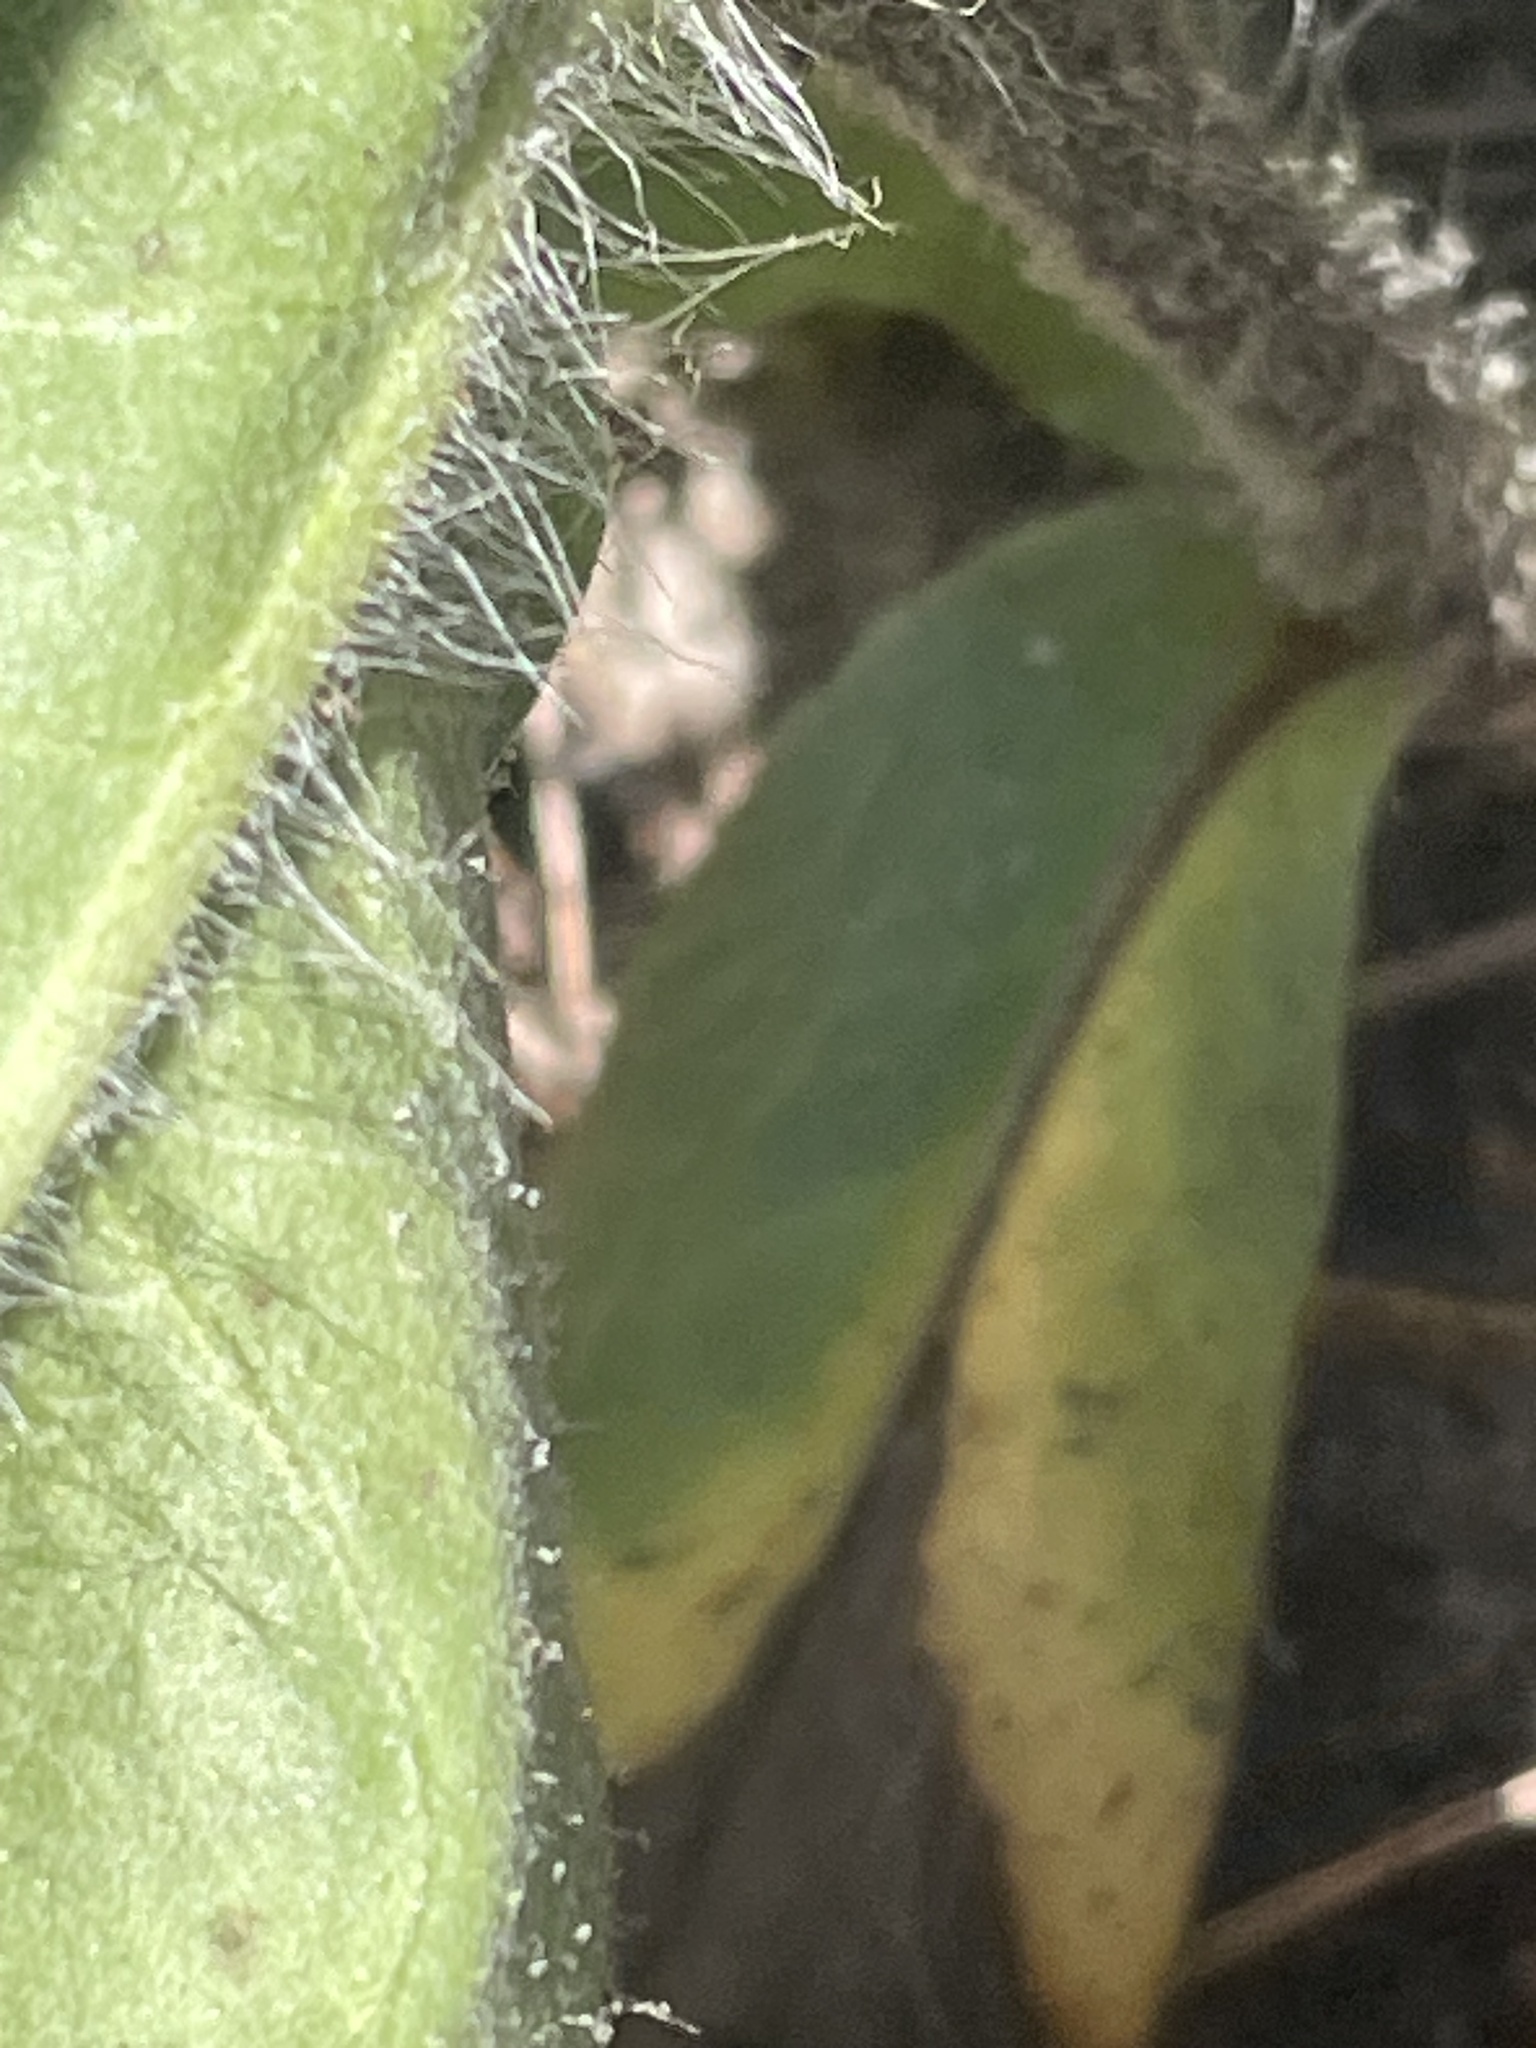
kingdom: Plantae
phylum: Tracheophyta
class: Magnoliopsida
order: Asterales
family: Asteraceae
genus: Hieracium
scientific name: Hieracium gronovii
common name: Beaked hawkweed
